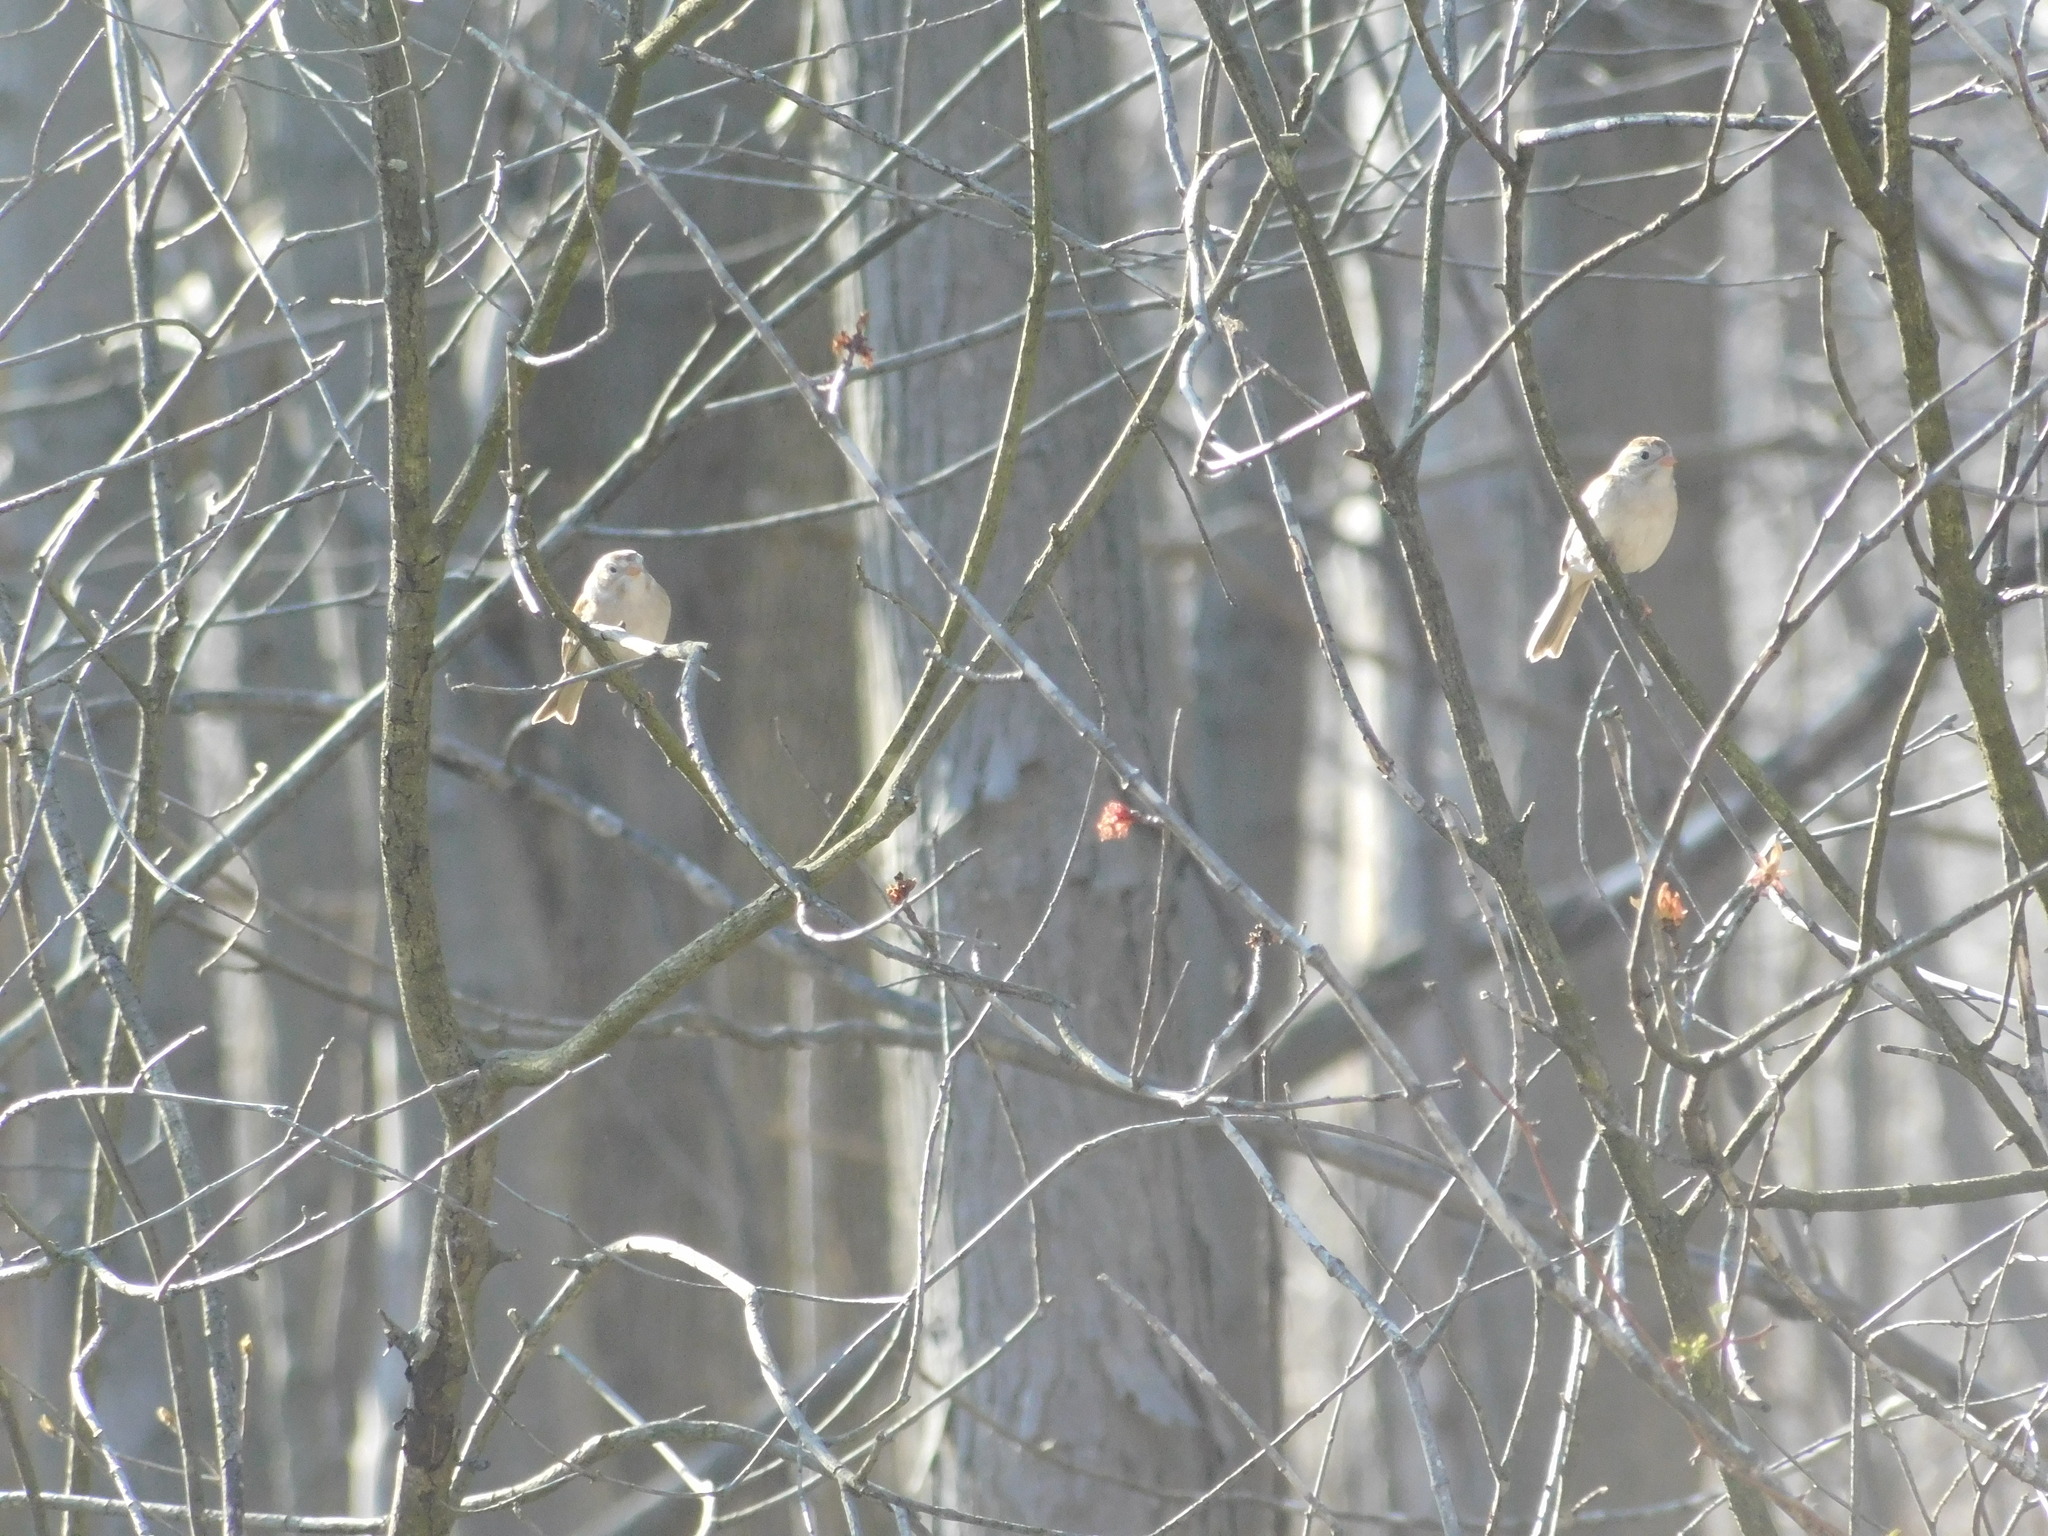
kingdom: Animalia
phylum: Chordata
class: Aves
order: Passeriformes
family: Passerellidae
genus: Spizella
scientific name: Spizella pusilla
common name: Field sparrow
